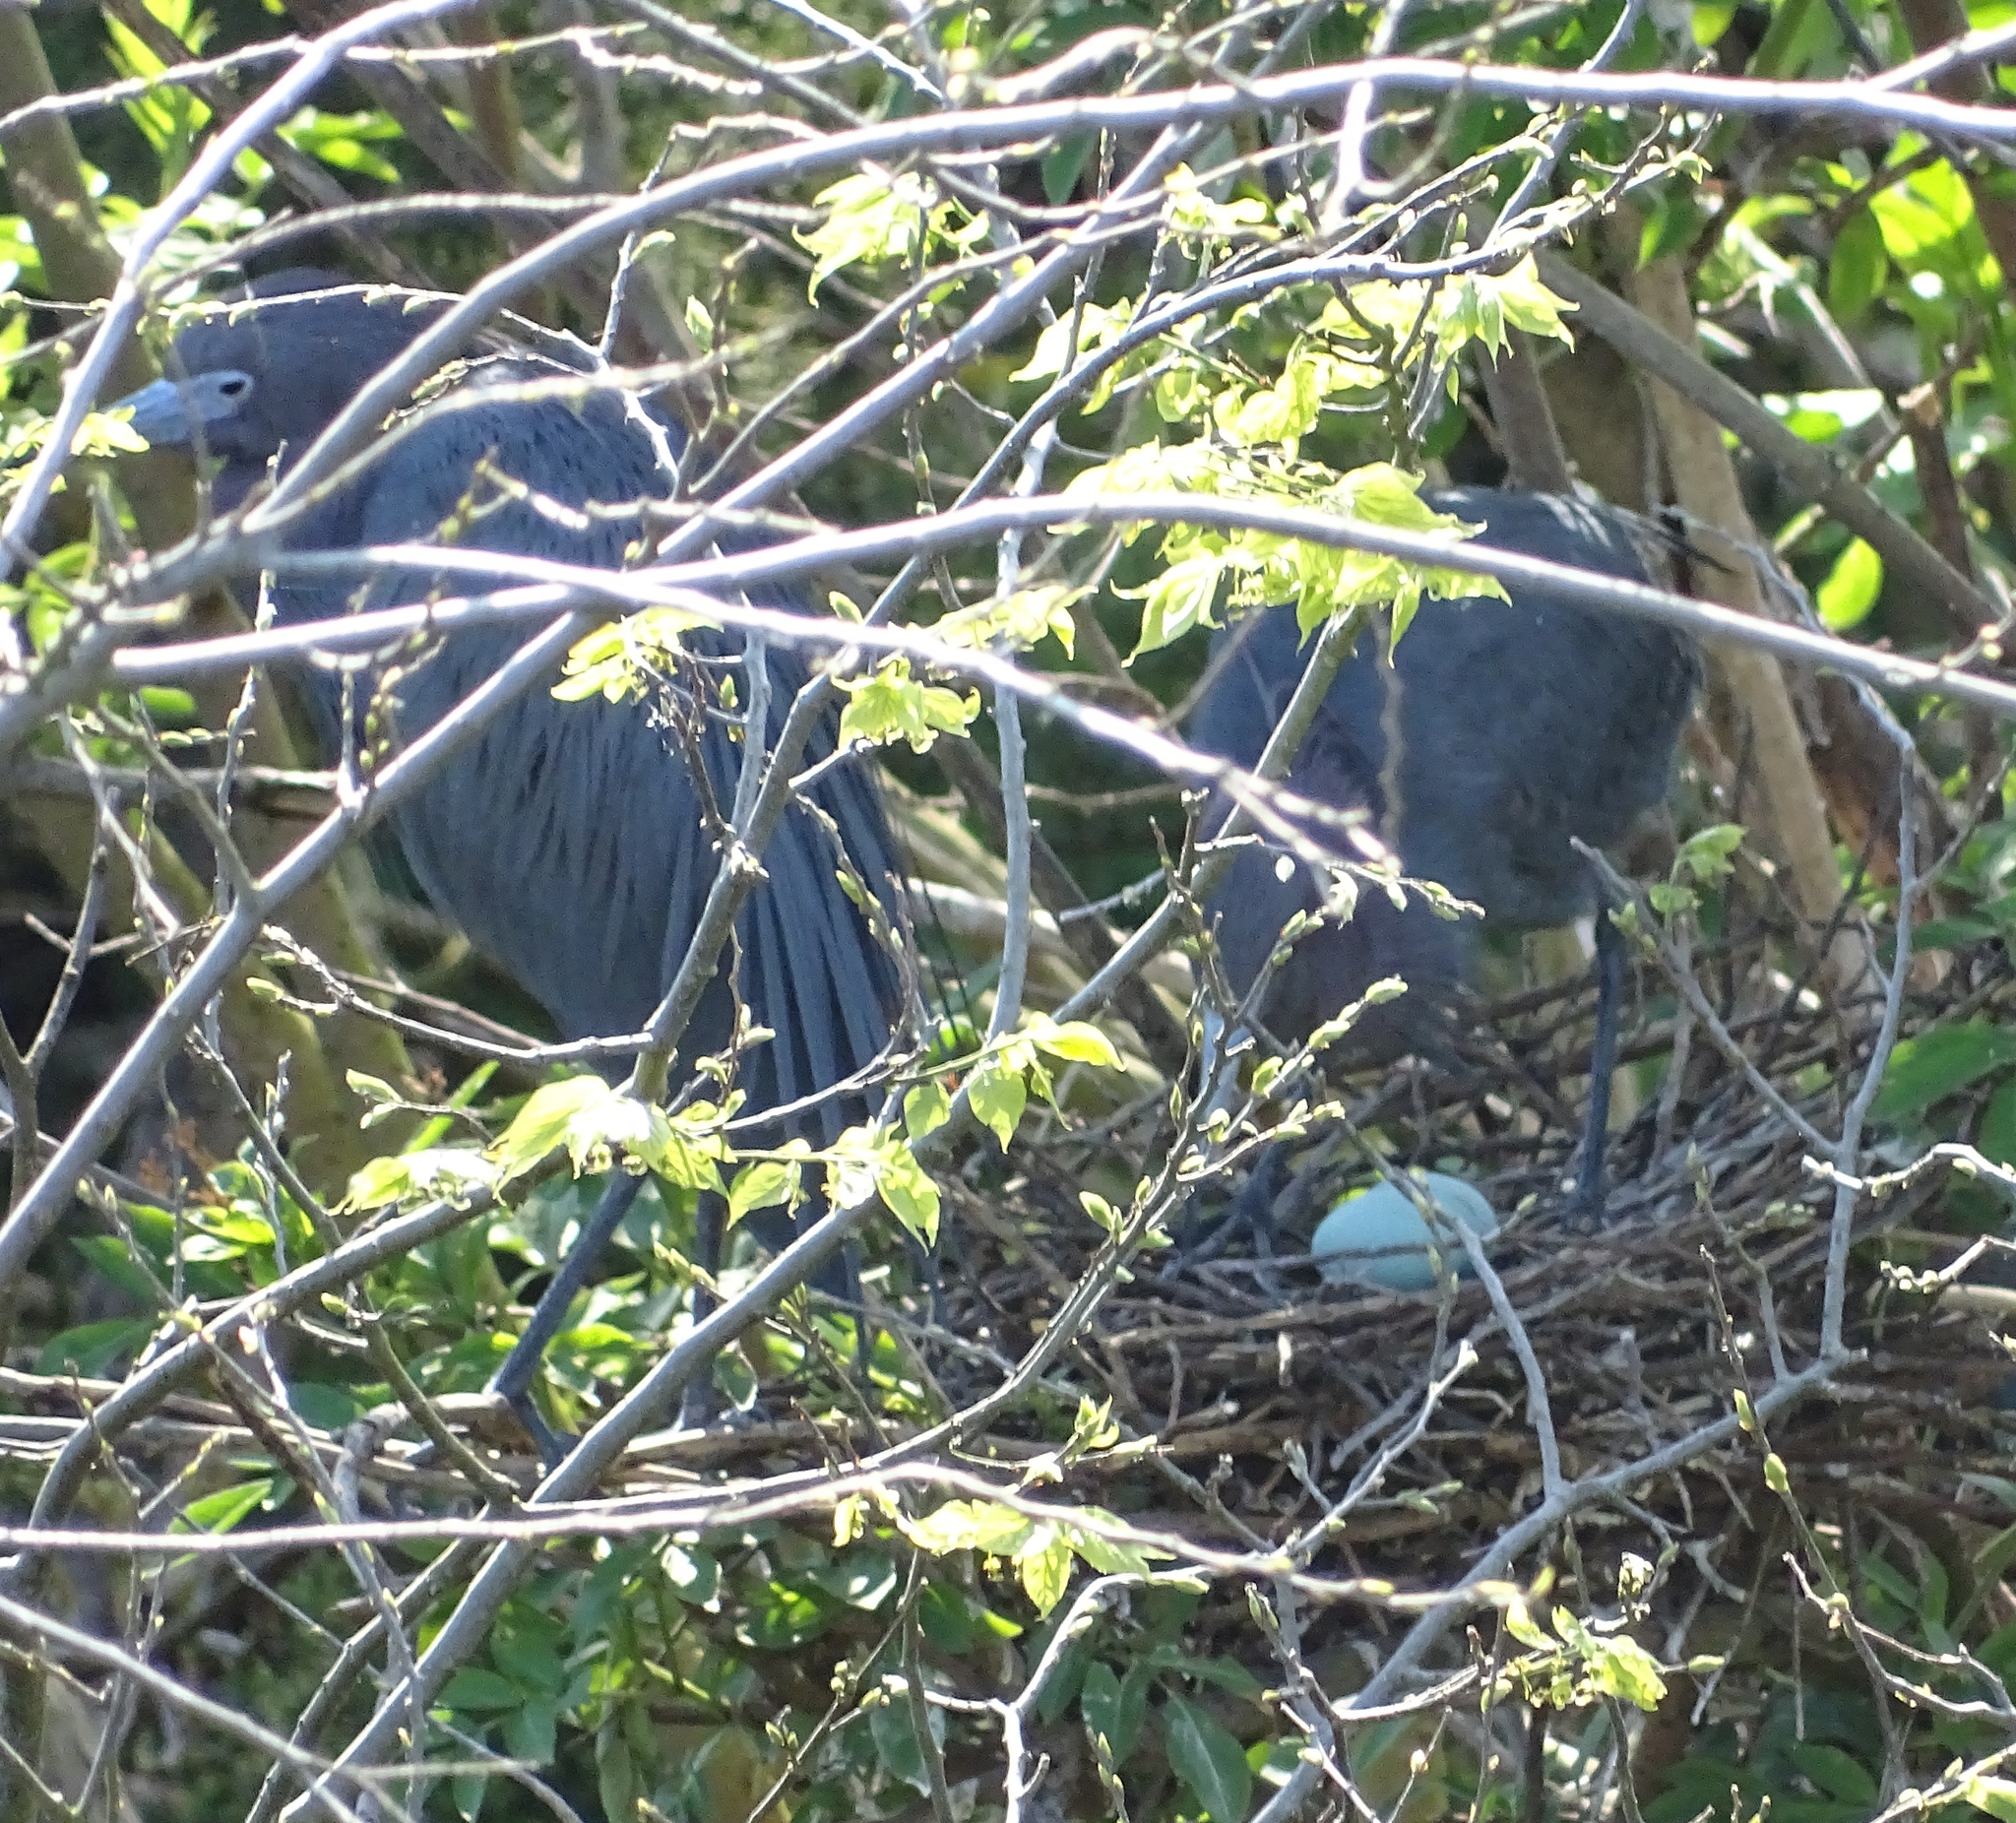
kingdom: Animalia
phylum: Chordata
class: Aves
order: Pelecaniformes
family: Ardeidae
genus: Egretta
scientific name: Egretta caerulea
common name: Little blue heron
